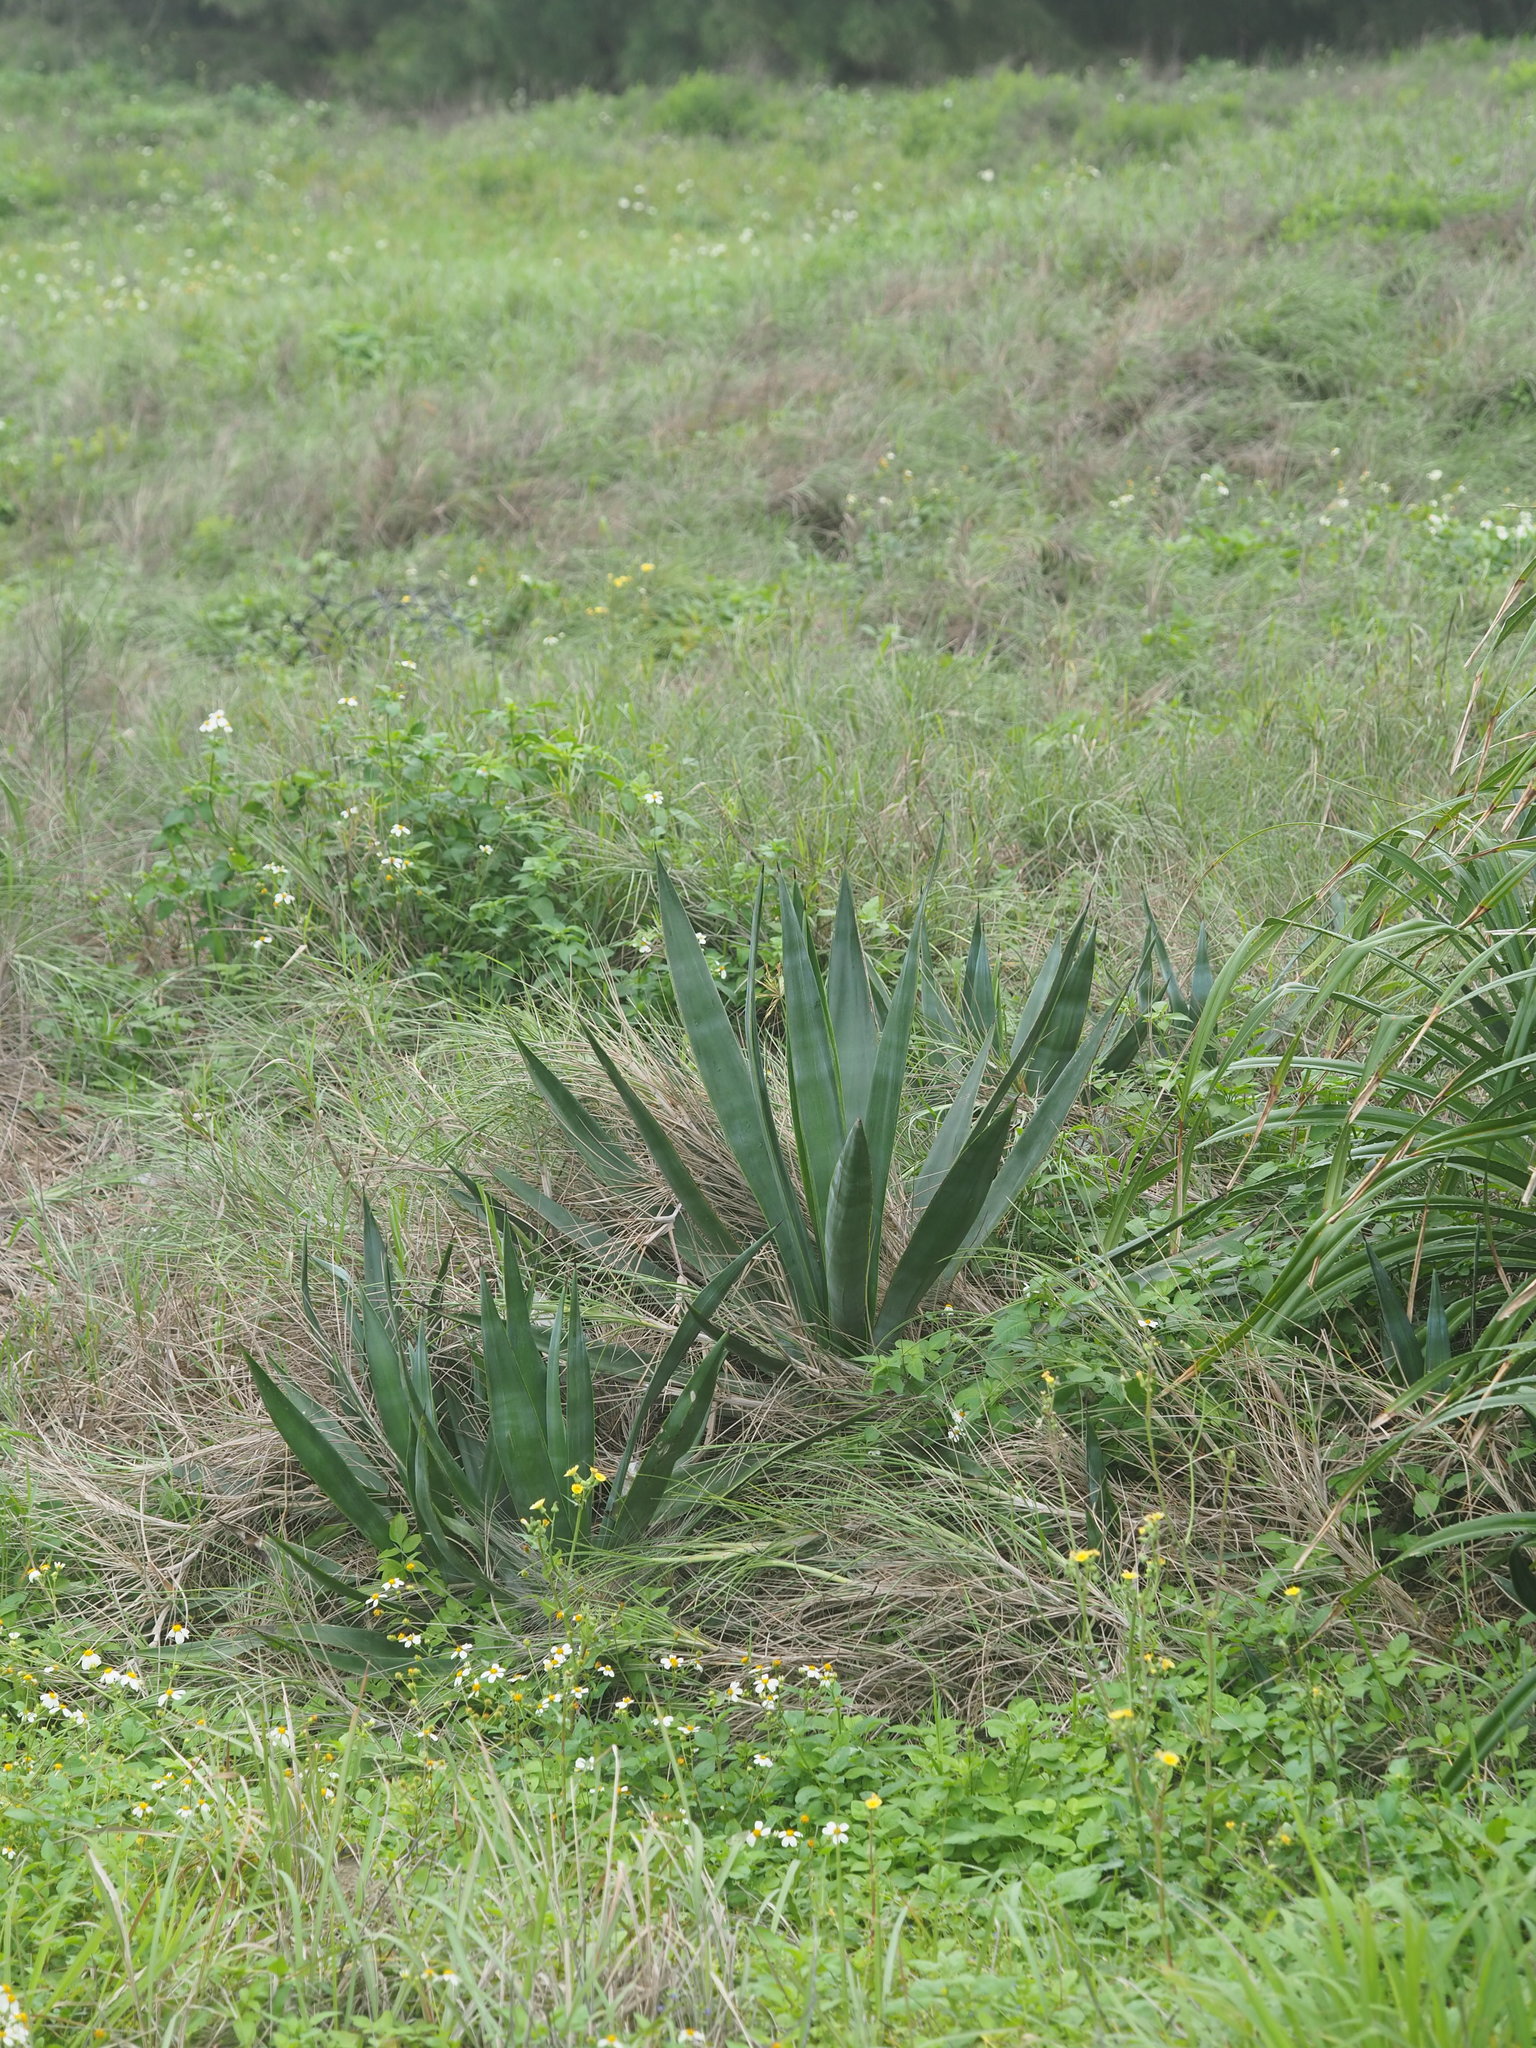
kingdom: Plantae
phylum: Tracheophyta
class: Liliopsida
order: Asparagales
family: Asparagaceae
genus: Agave
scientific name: Agave sisalana
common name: Sisal hemp
